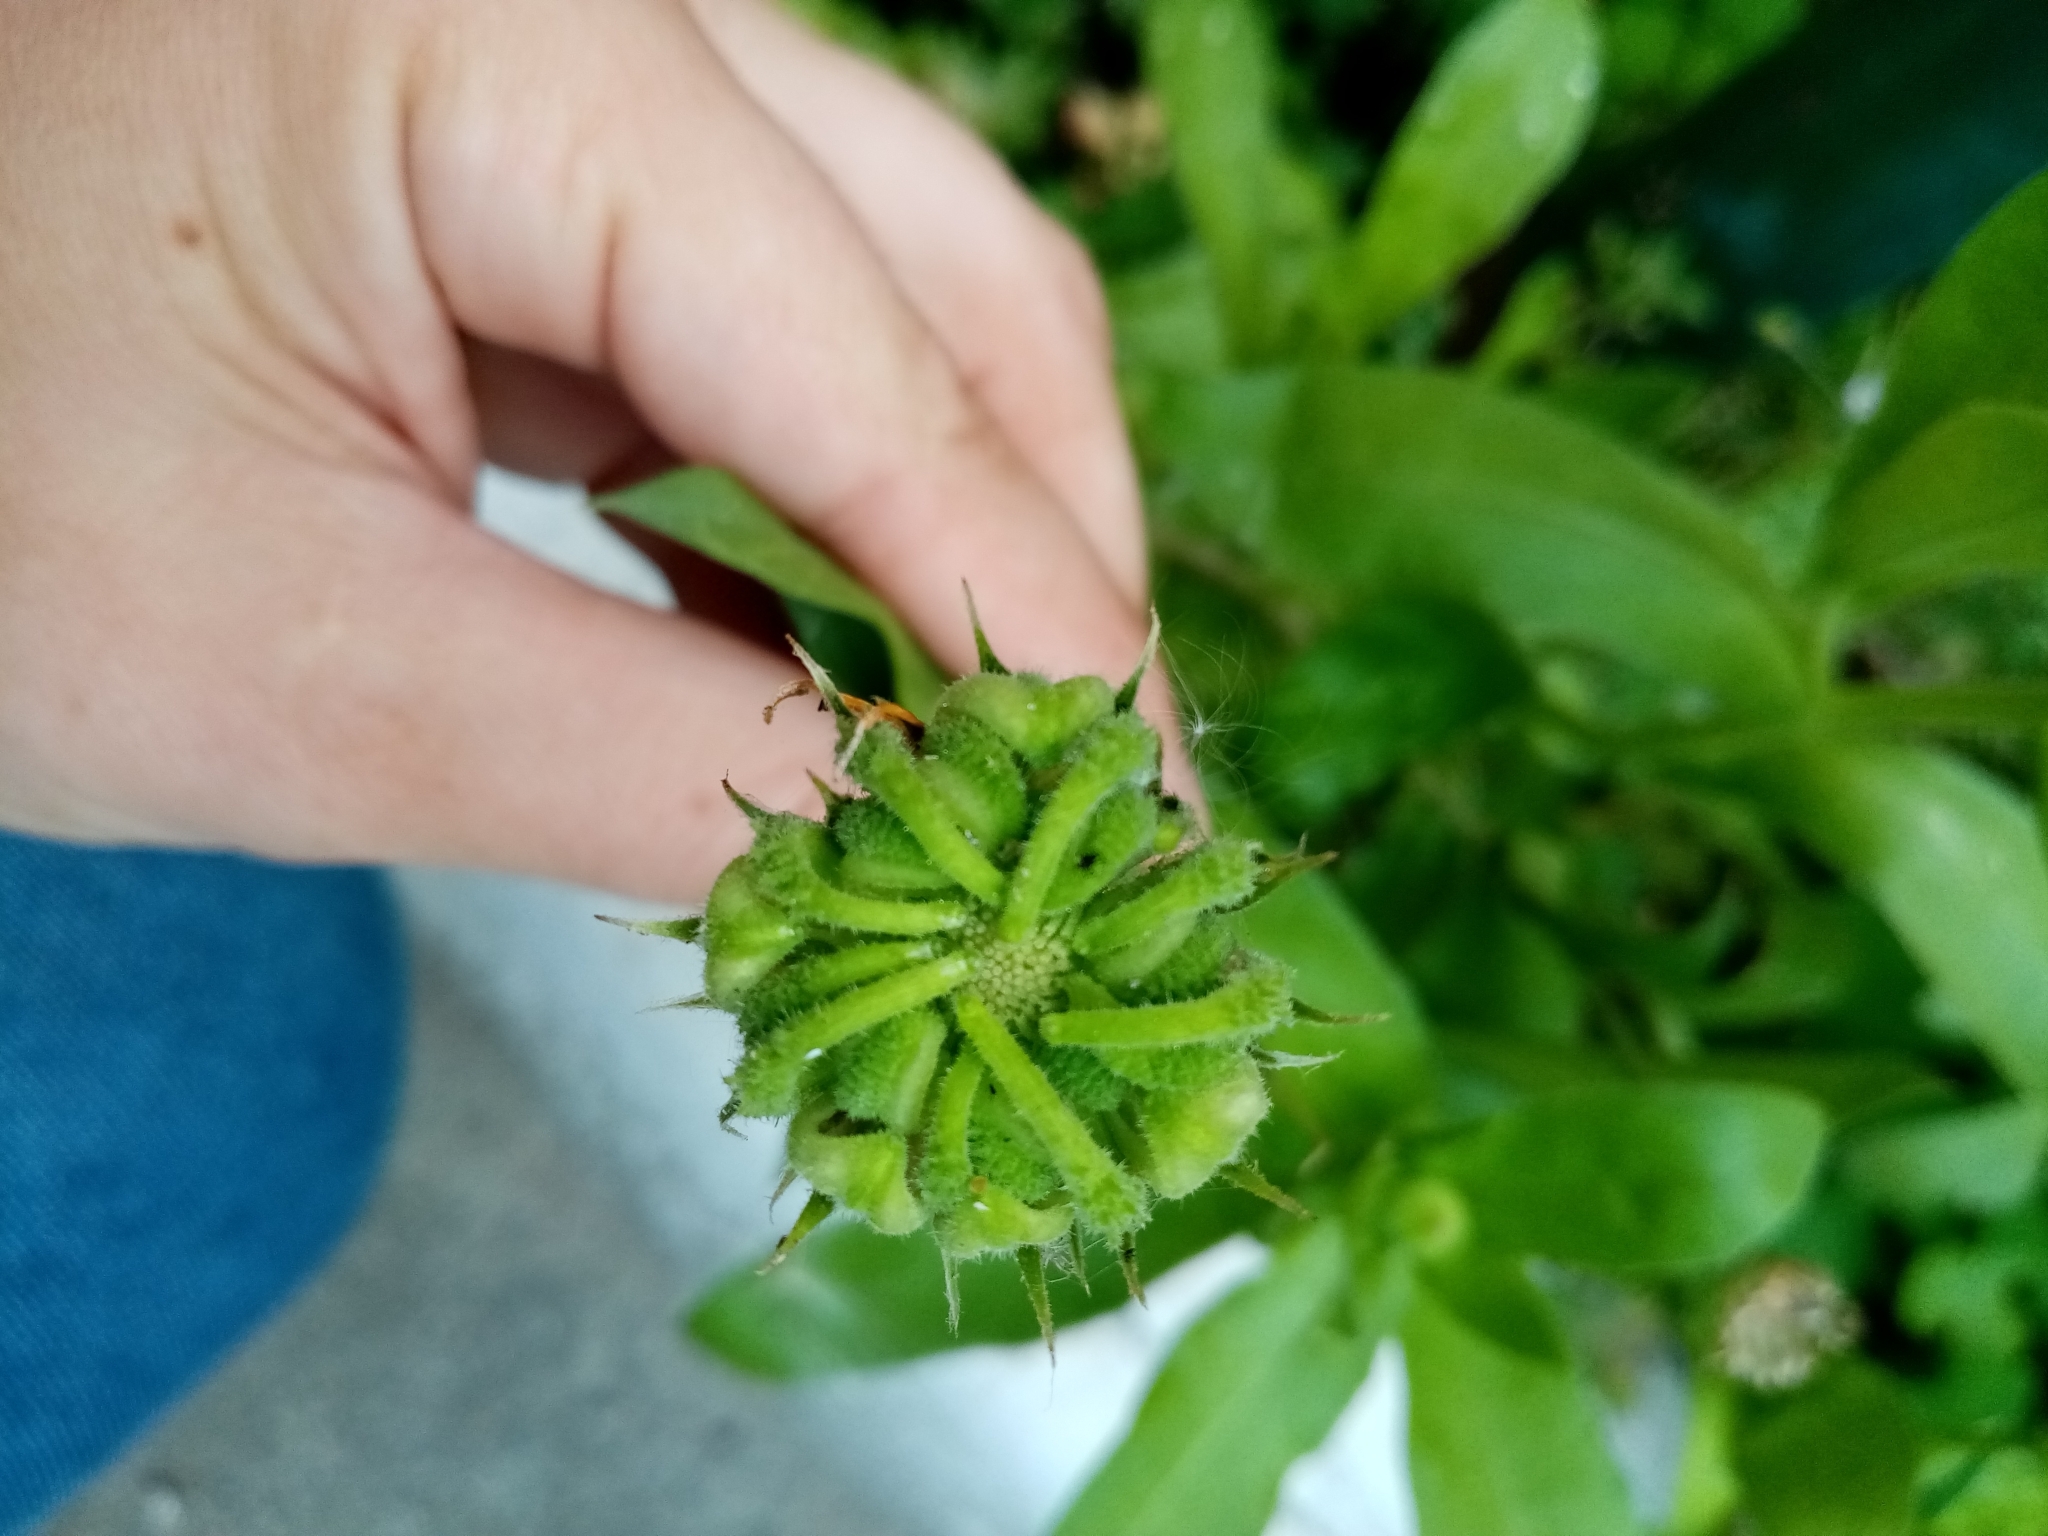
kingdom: Plantae
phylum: Tracheophyta
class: Magnoliopsida
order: Asterales
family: Asteraceae
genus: Calendula
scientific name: Calendula officinalis
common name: Pot marigold
